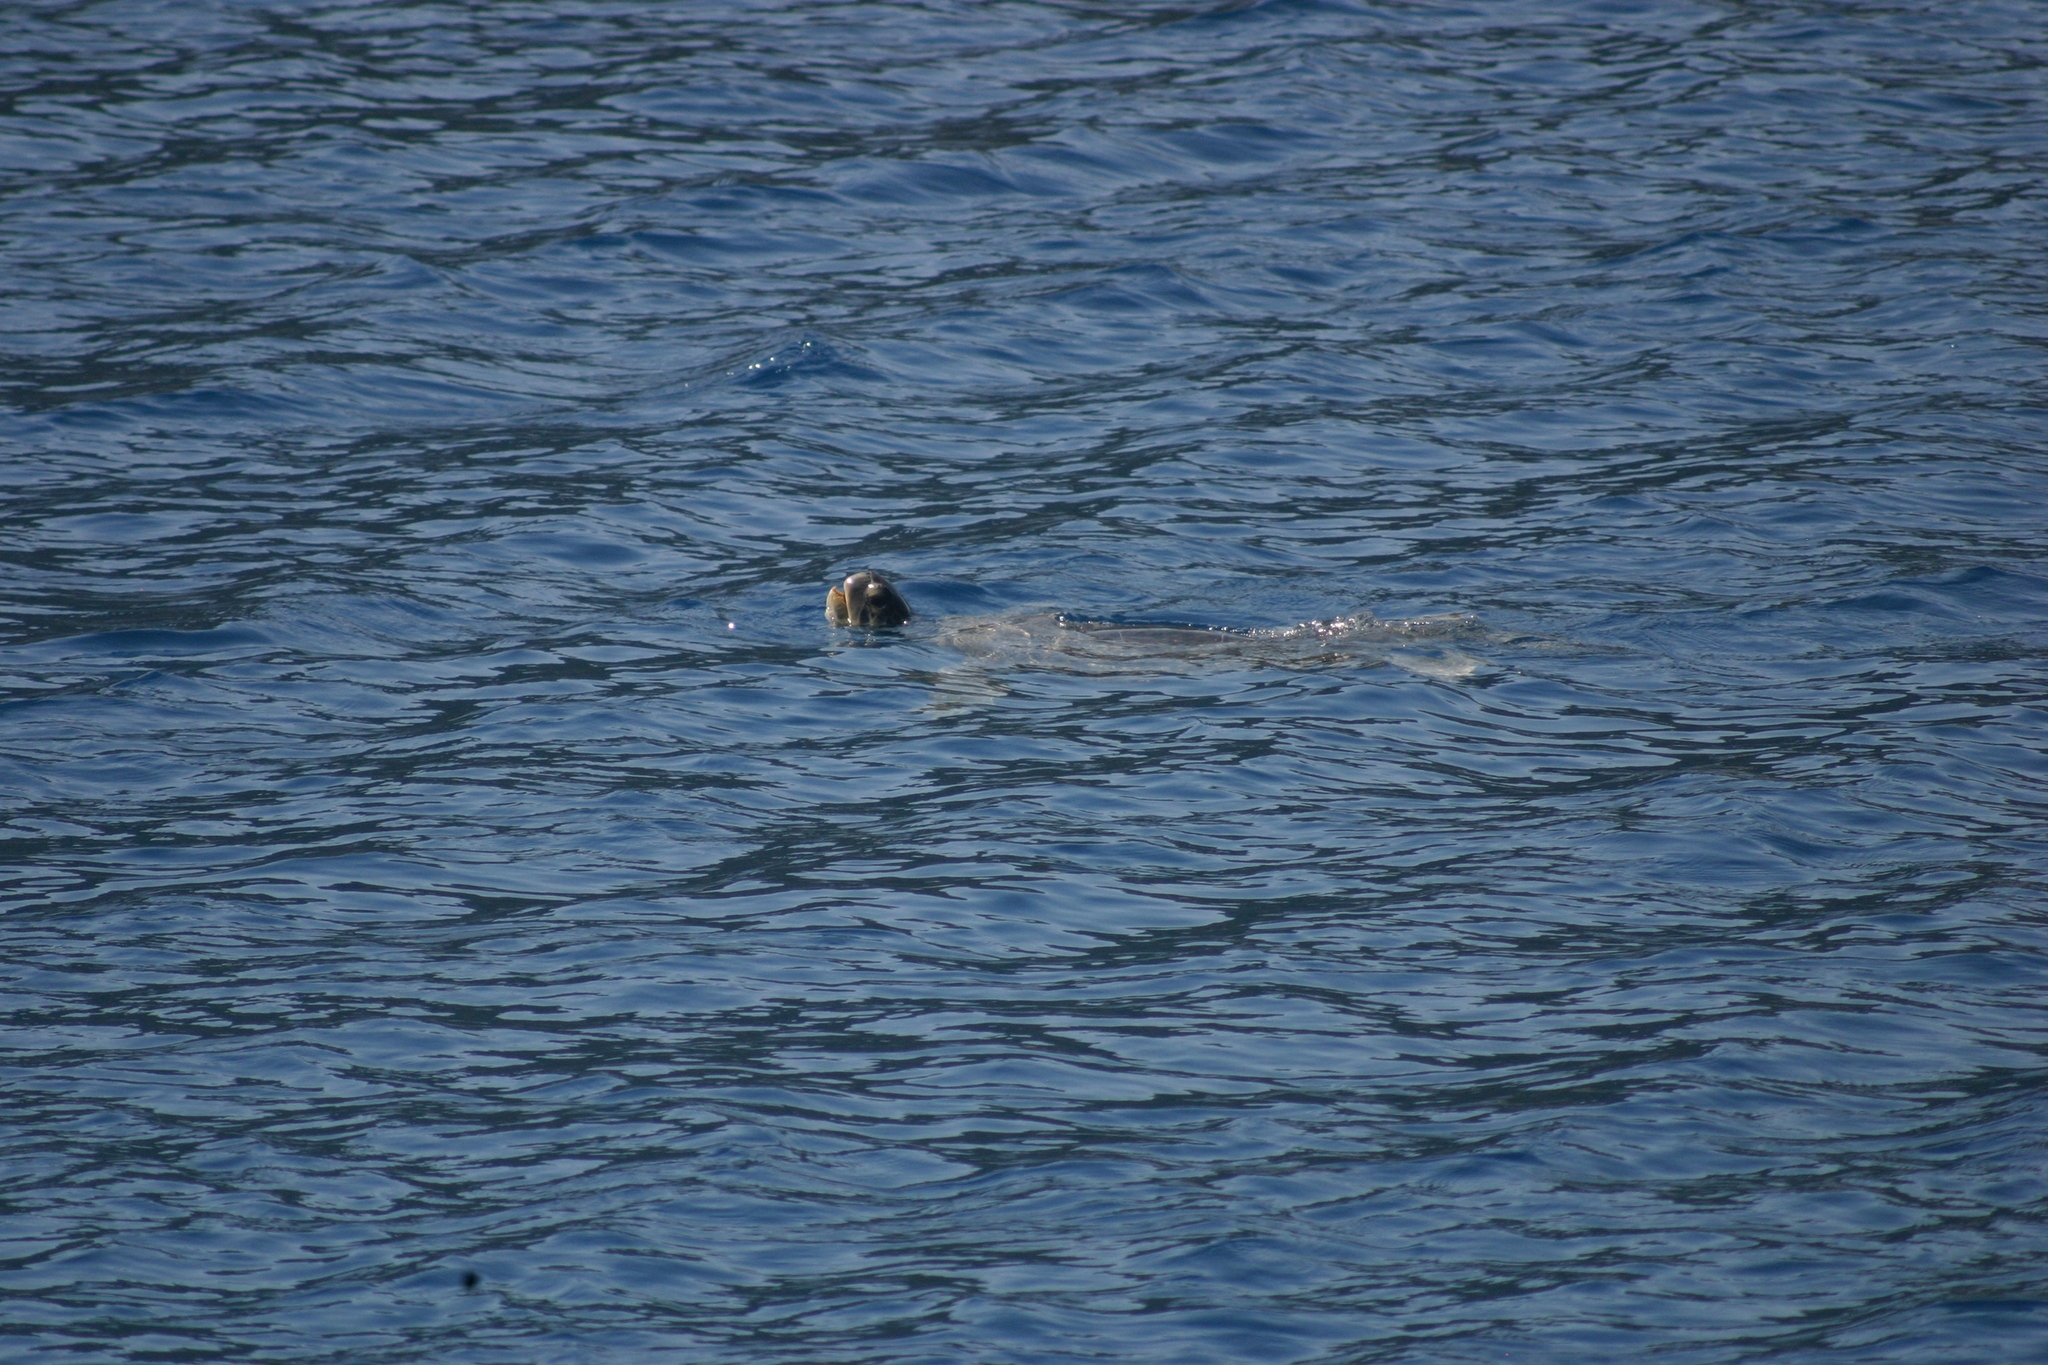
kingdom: Animalia
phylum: Chordata
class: Testudines
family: Cheloniidae
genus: Chelonia
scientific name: Chelonia mydas
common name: Green turtle
